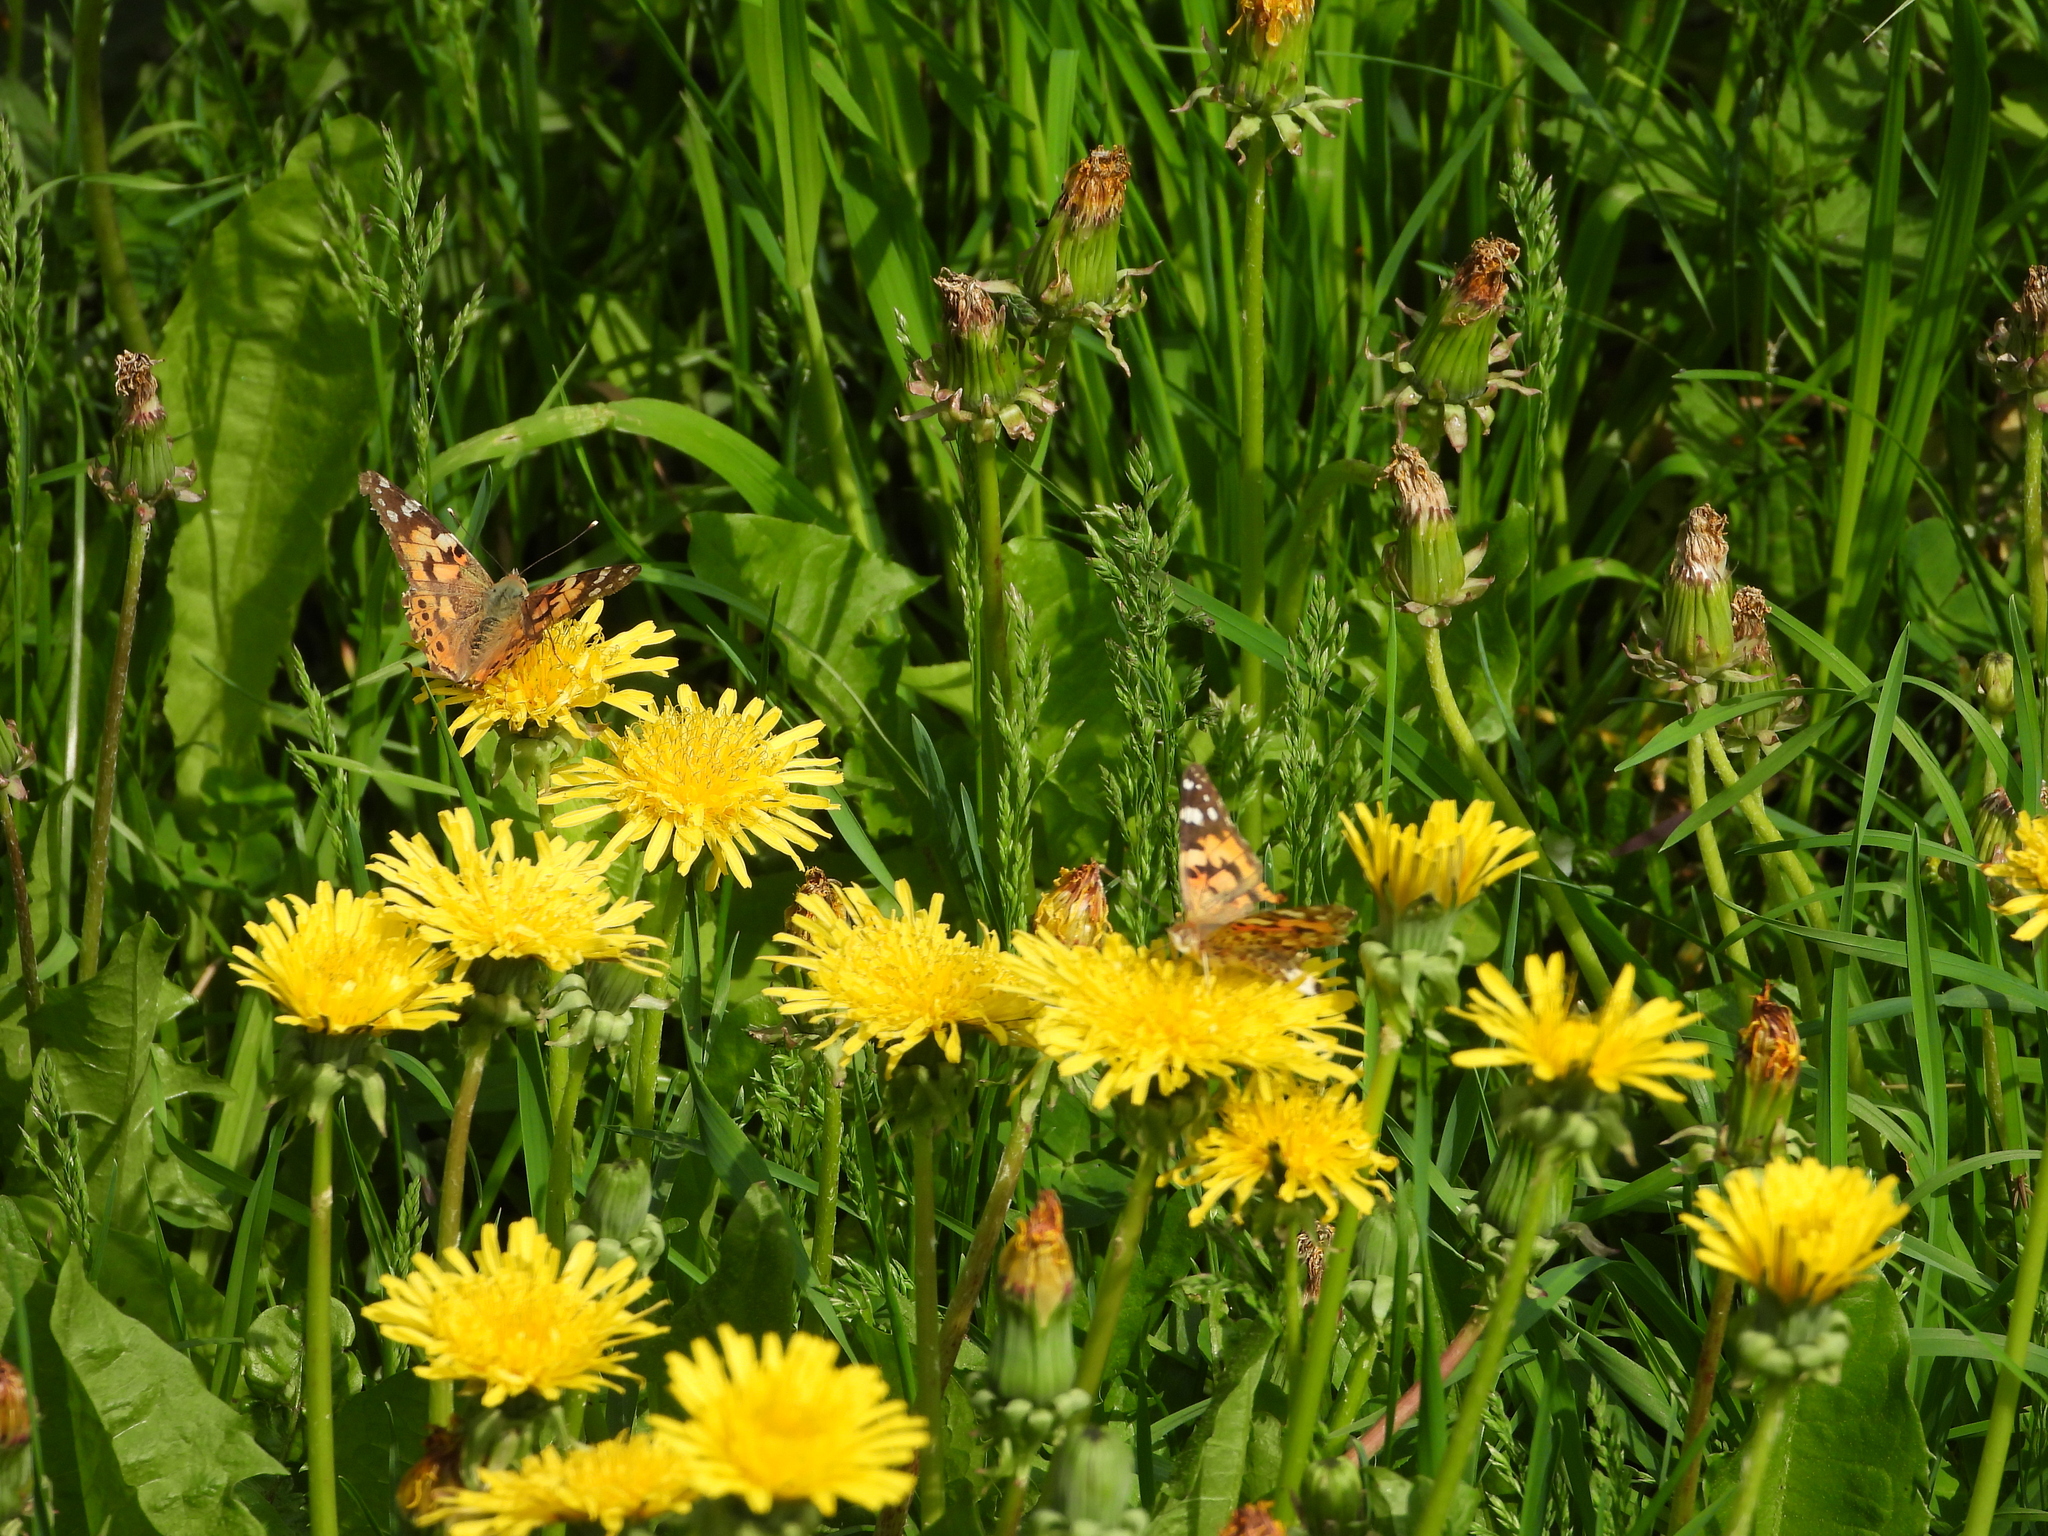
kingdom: Animalia
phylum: Arthropoda
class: Insecta
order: Lepidoptera
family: Nymphalidae
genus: Vanessa
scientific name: Vanessa cardui
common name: Painted lady
